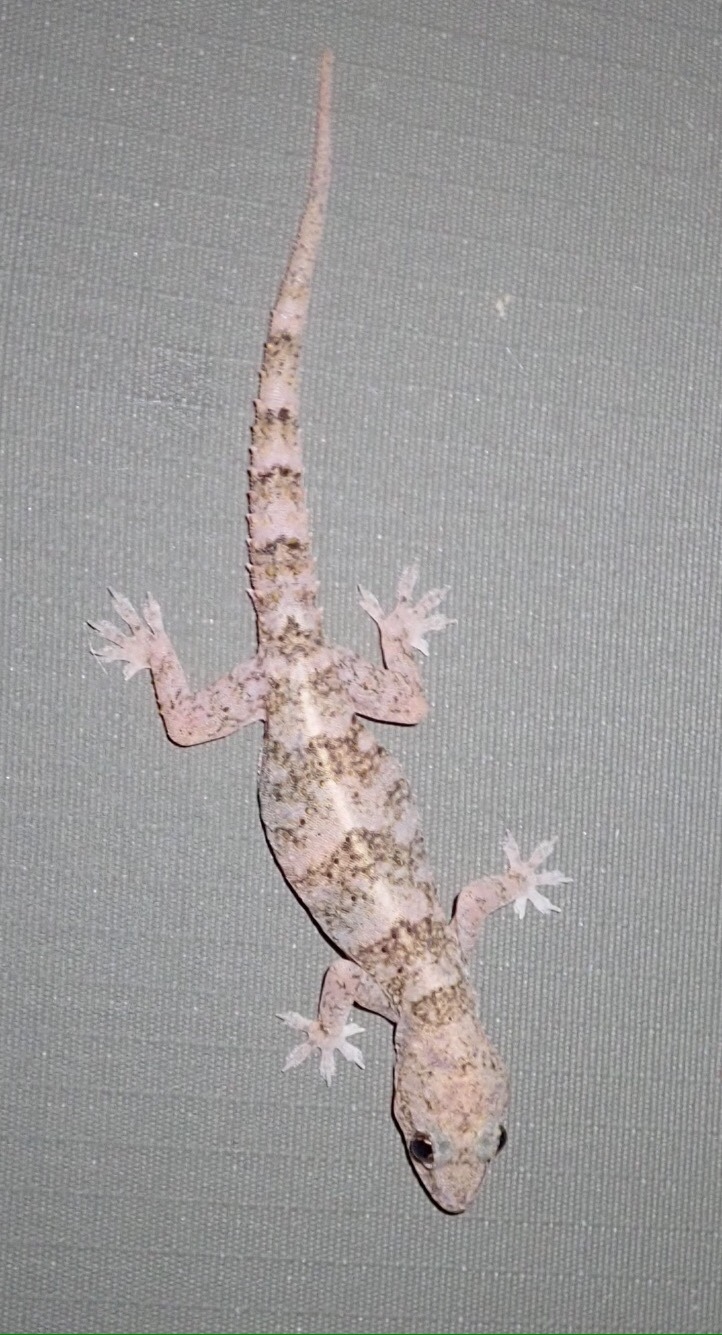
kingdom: Animalia
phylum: Chordata
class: Squamata
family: Gekkonidae
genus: Hemidactylus
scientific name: Hemidactylus mabouia
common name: House gecko
